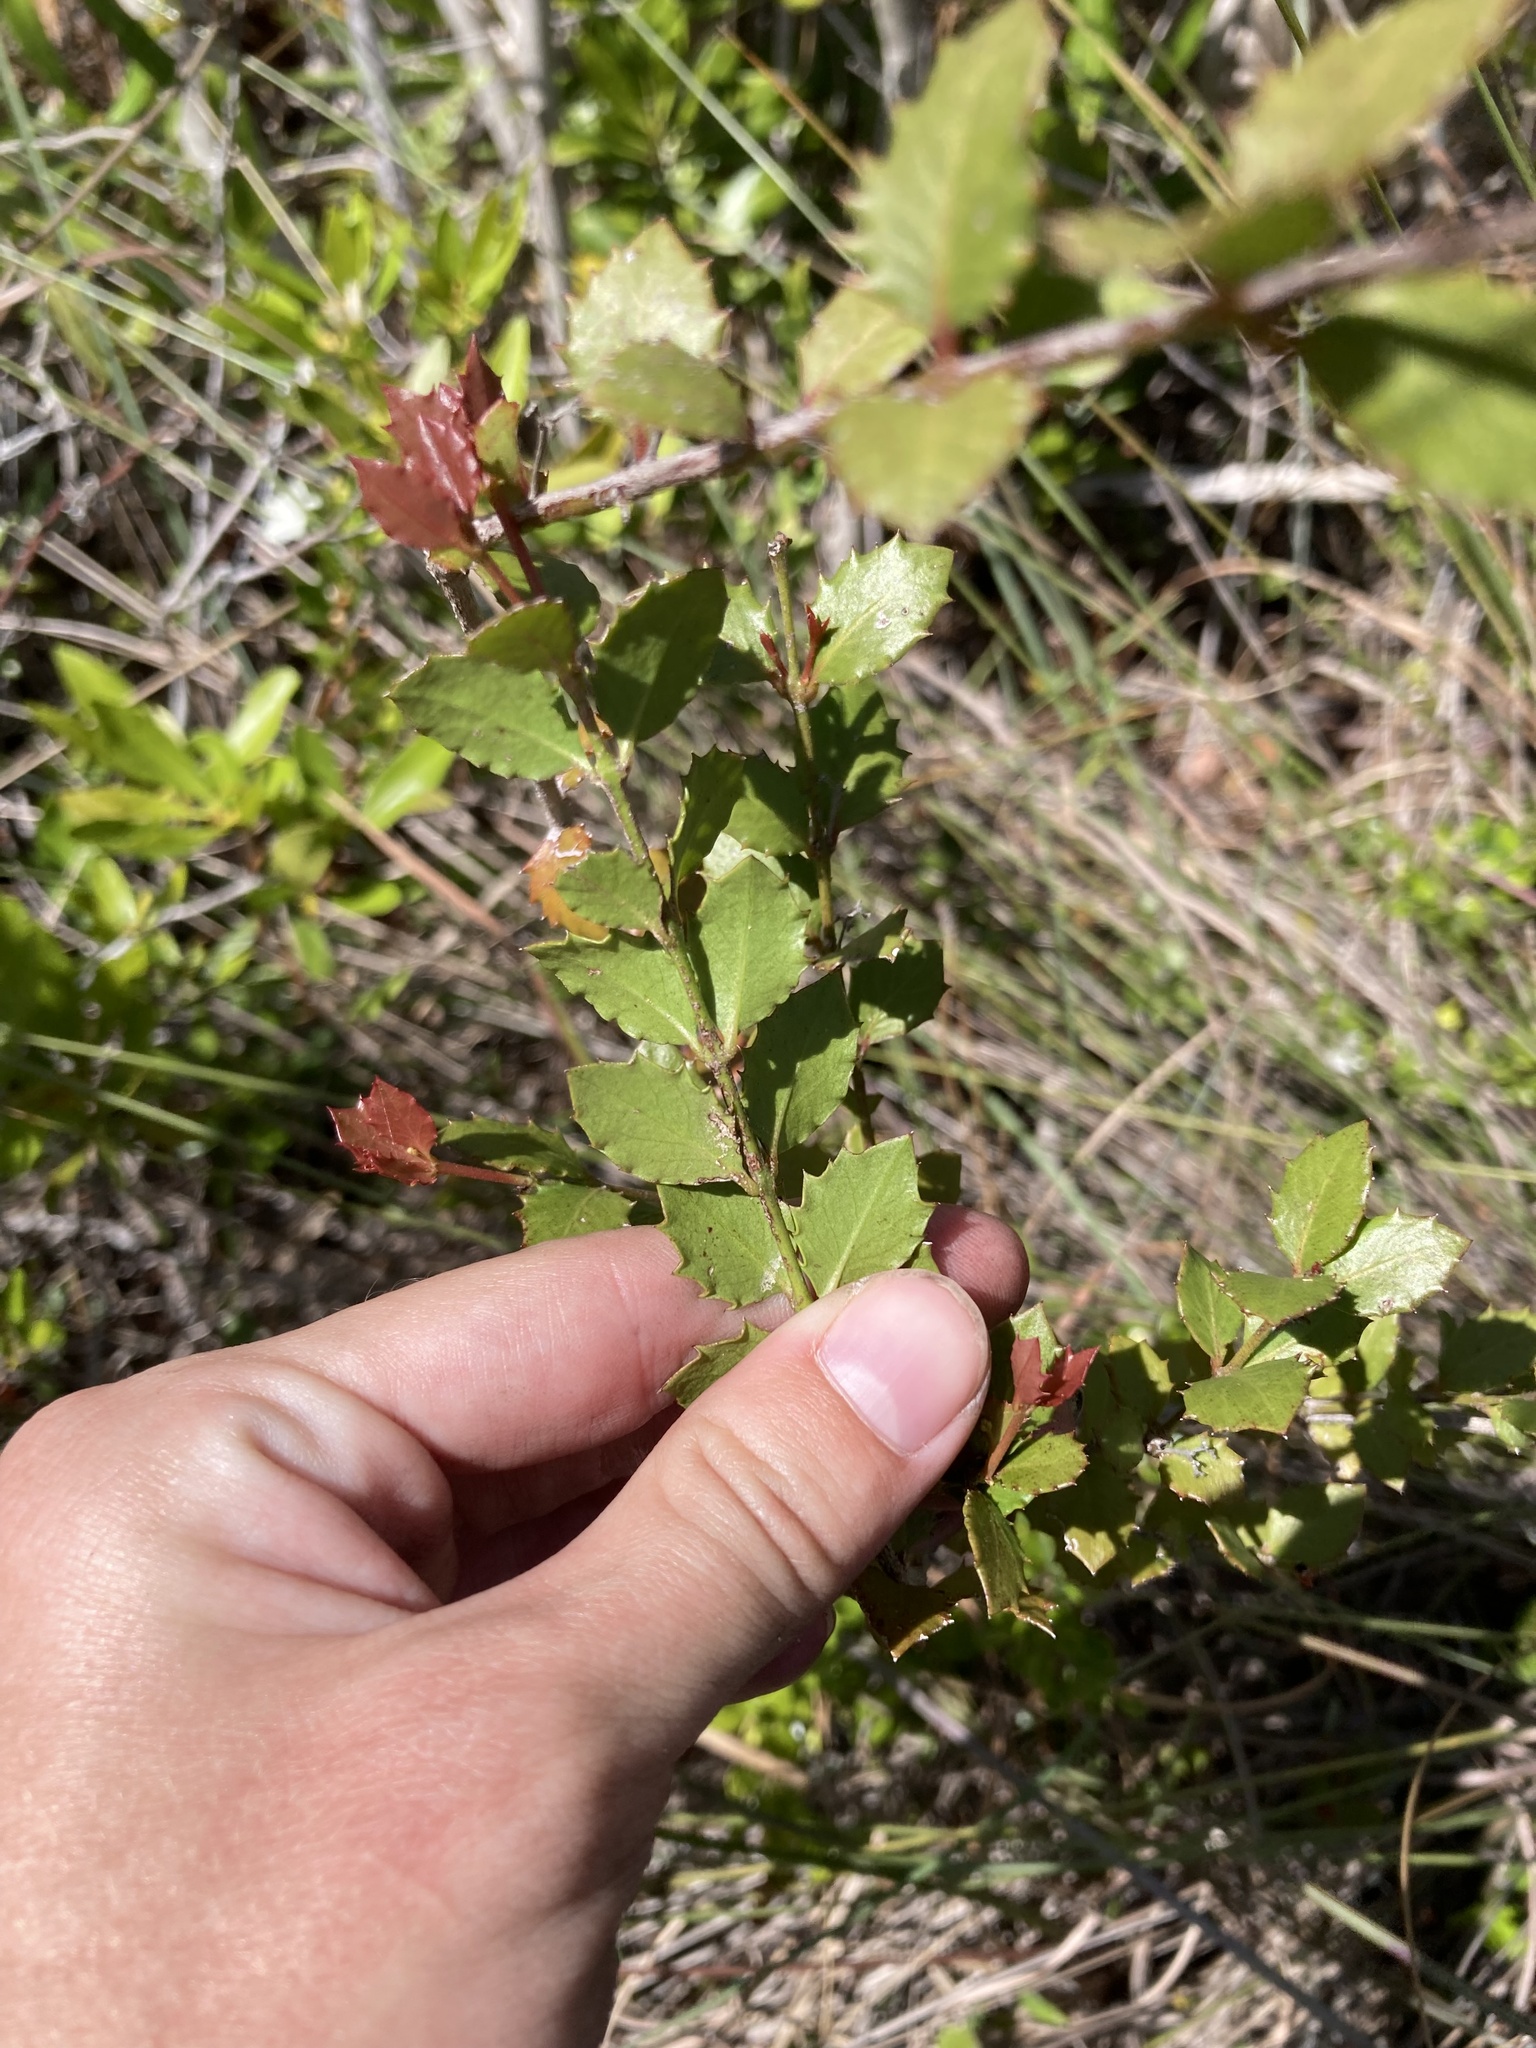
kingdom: Plantae
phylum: Tracheophyta
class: Magnoliopsida
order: Celastrales
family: Celastraceae
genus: Crossopetalum
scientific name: Crossopetalum ilicifolium
